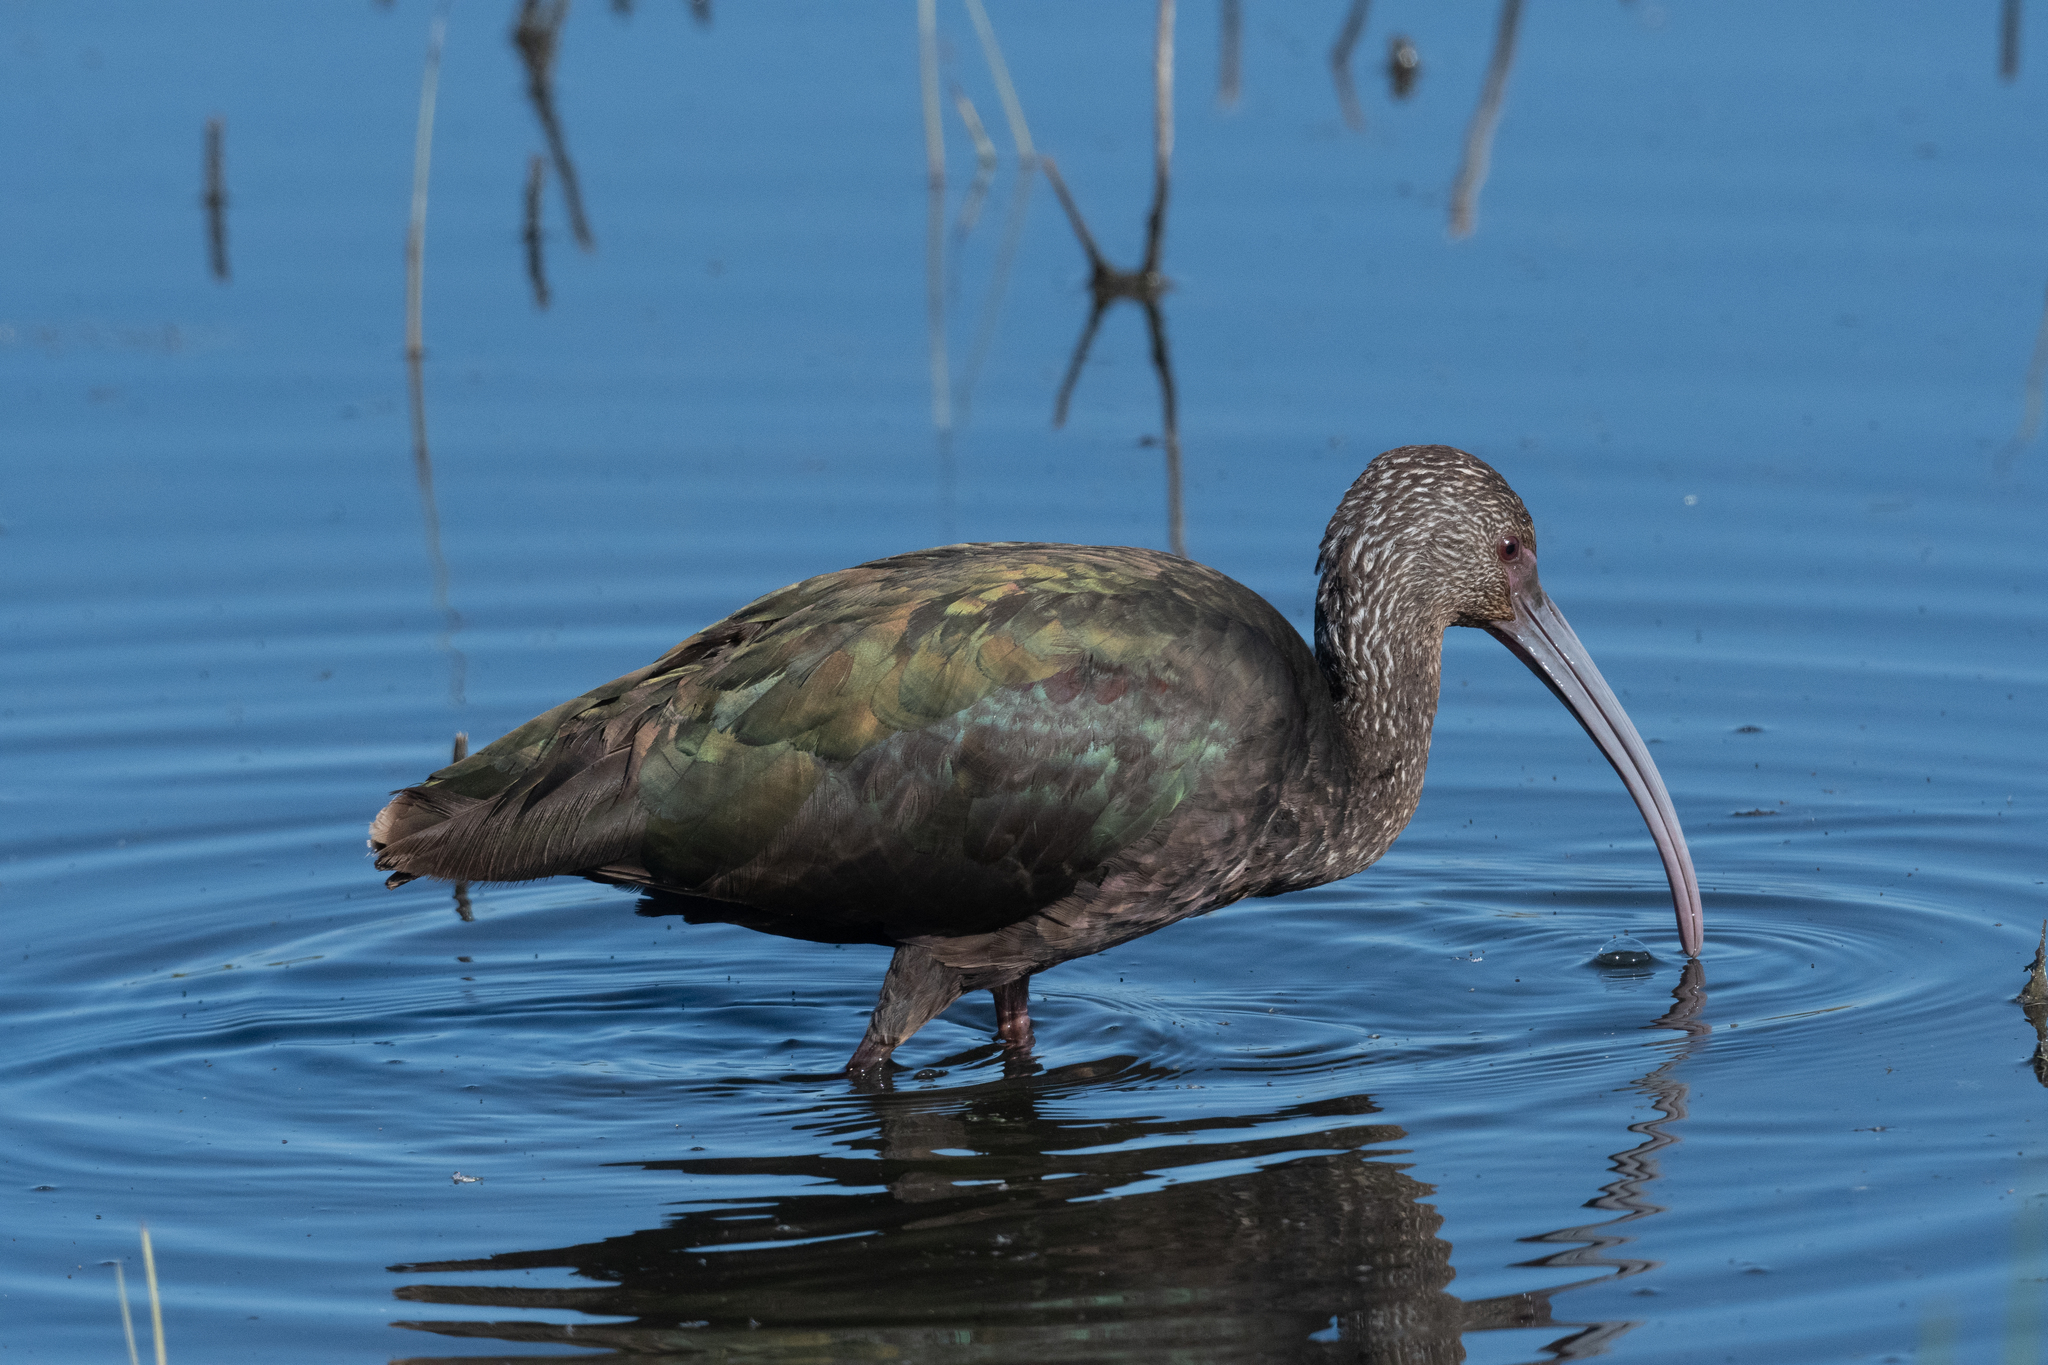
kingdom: Animalia
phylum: Chordata
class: Aves
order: Pelecaniformes
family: Threskiornithidae
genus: Plegadis
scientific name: Plegadis chihi
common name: White-faced ibis
